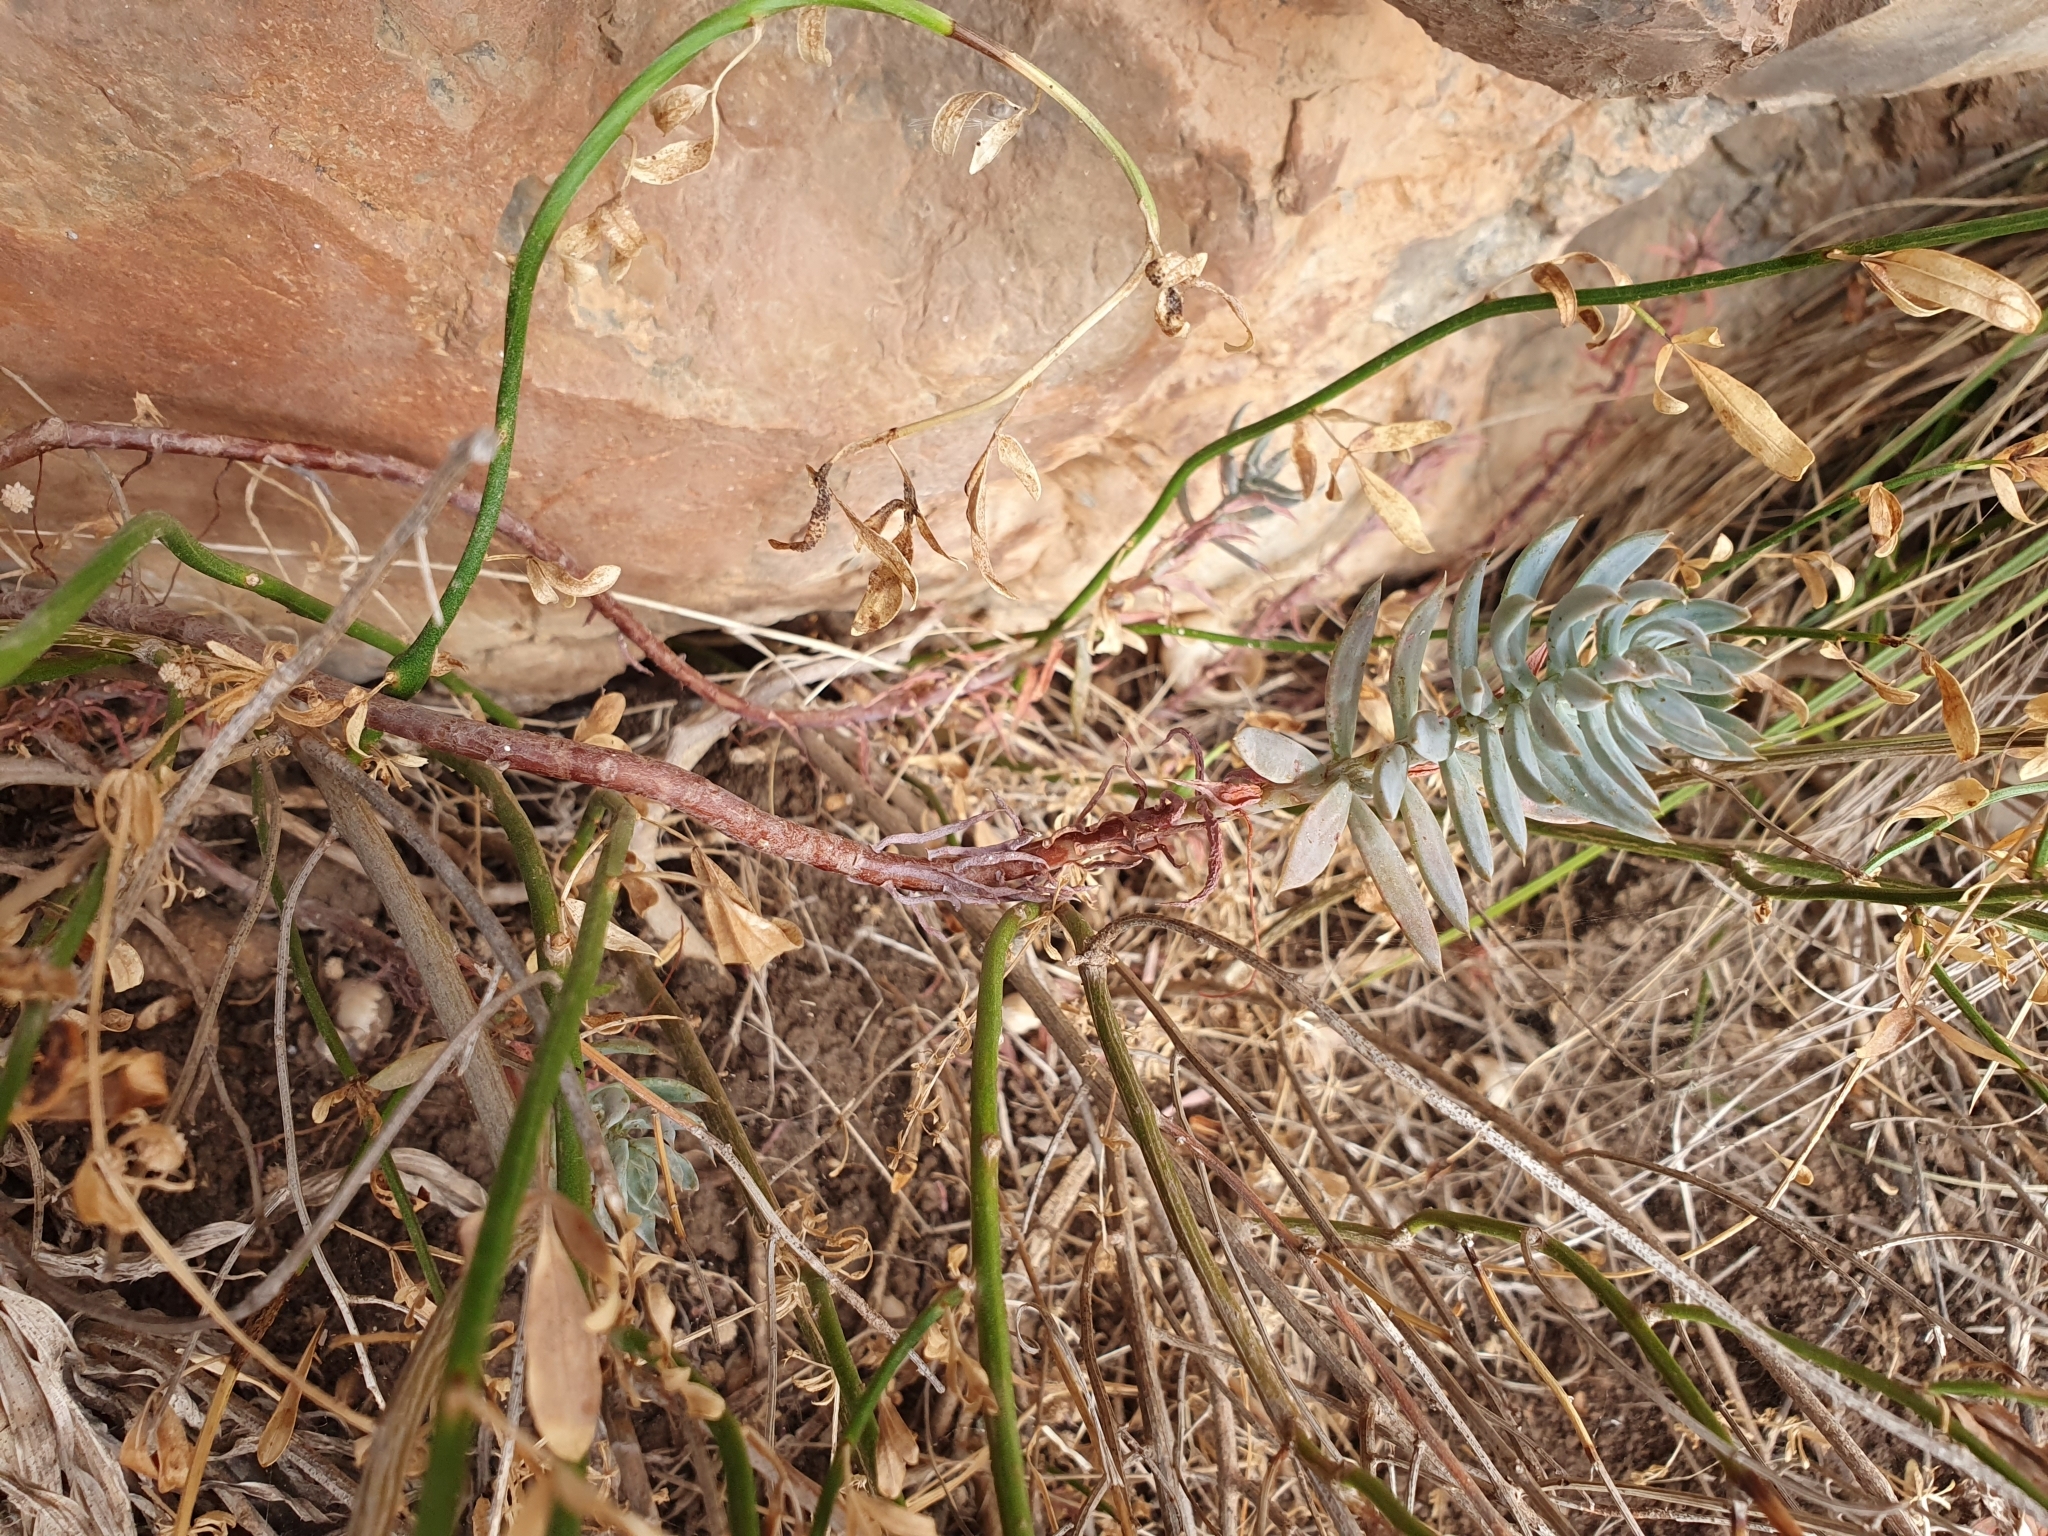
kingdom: Plantae
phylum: Tracheophyta
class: Magnoliopsida
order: Saxifragales
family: Crassulaceae
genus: Petrosedum
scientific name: Petrosedum sediforme
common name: Pale stonecrop
